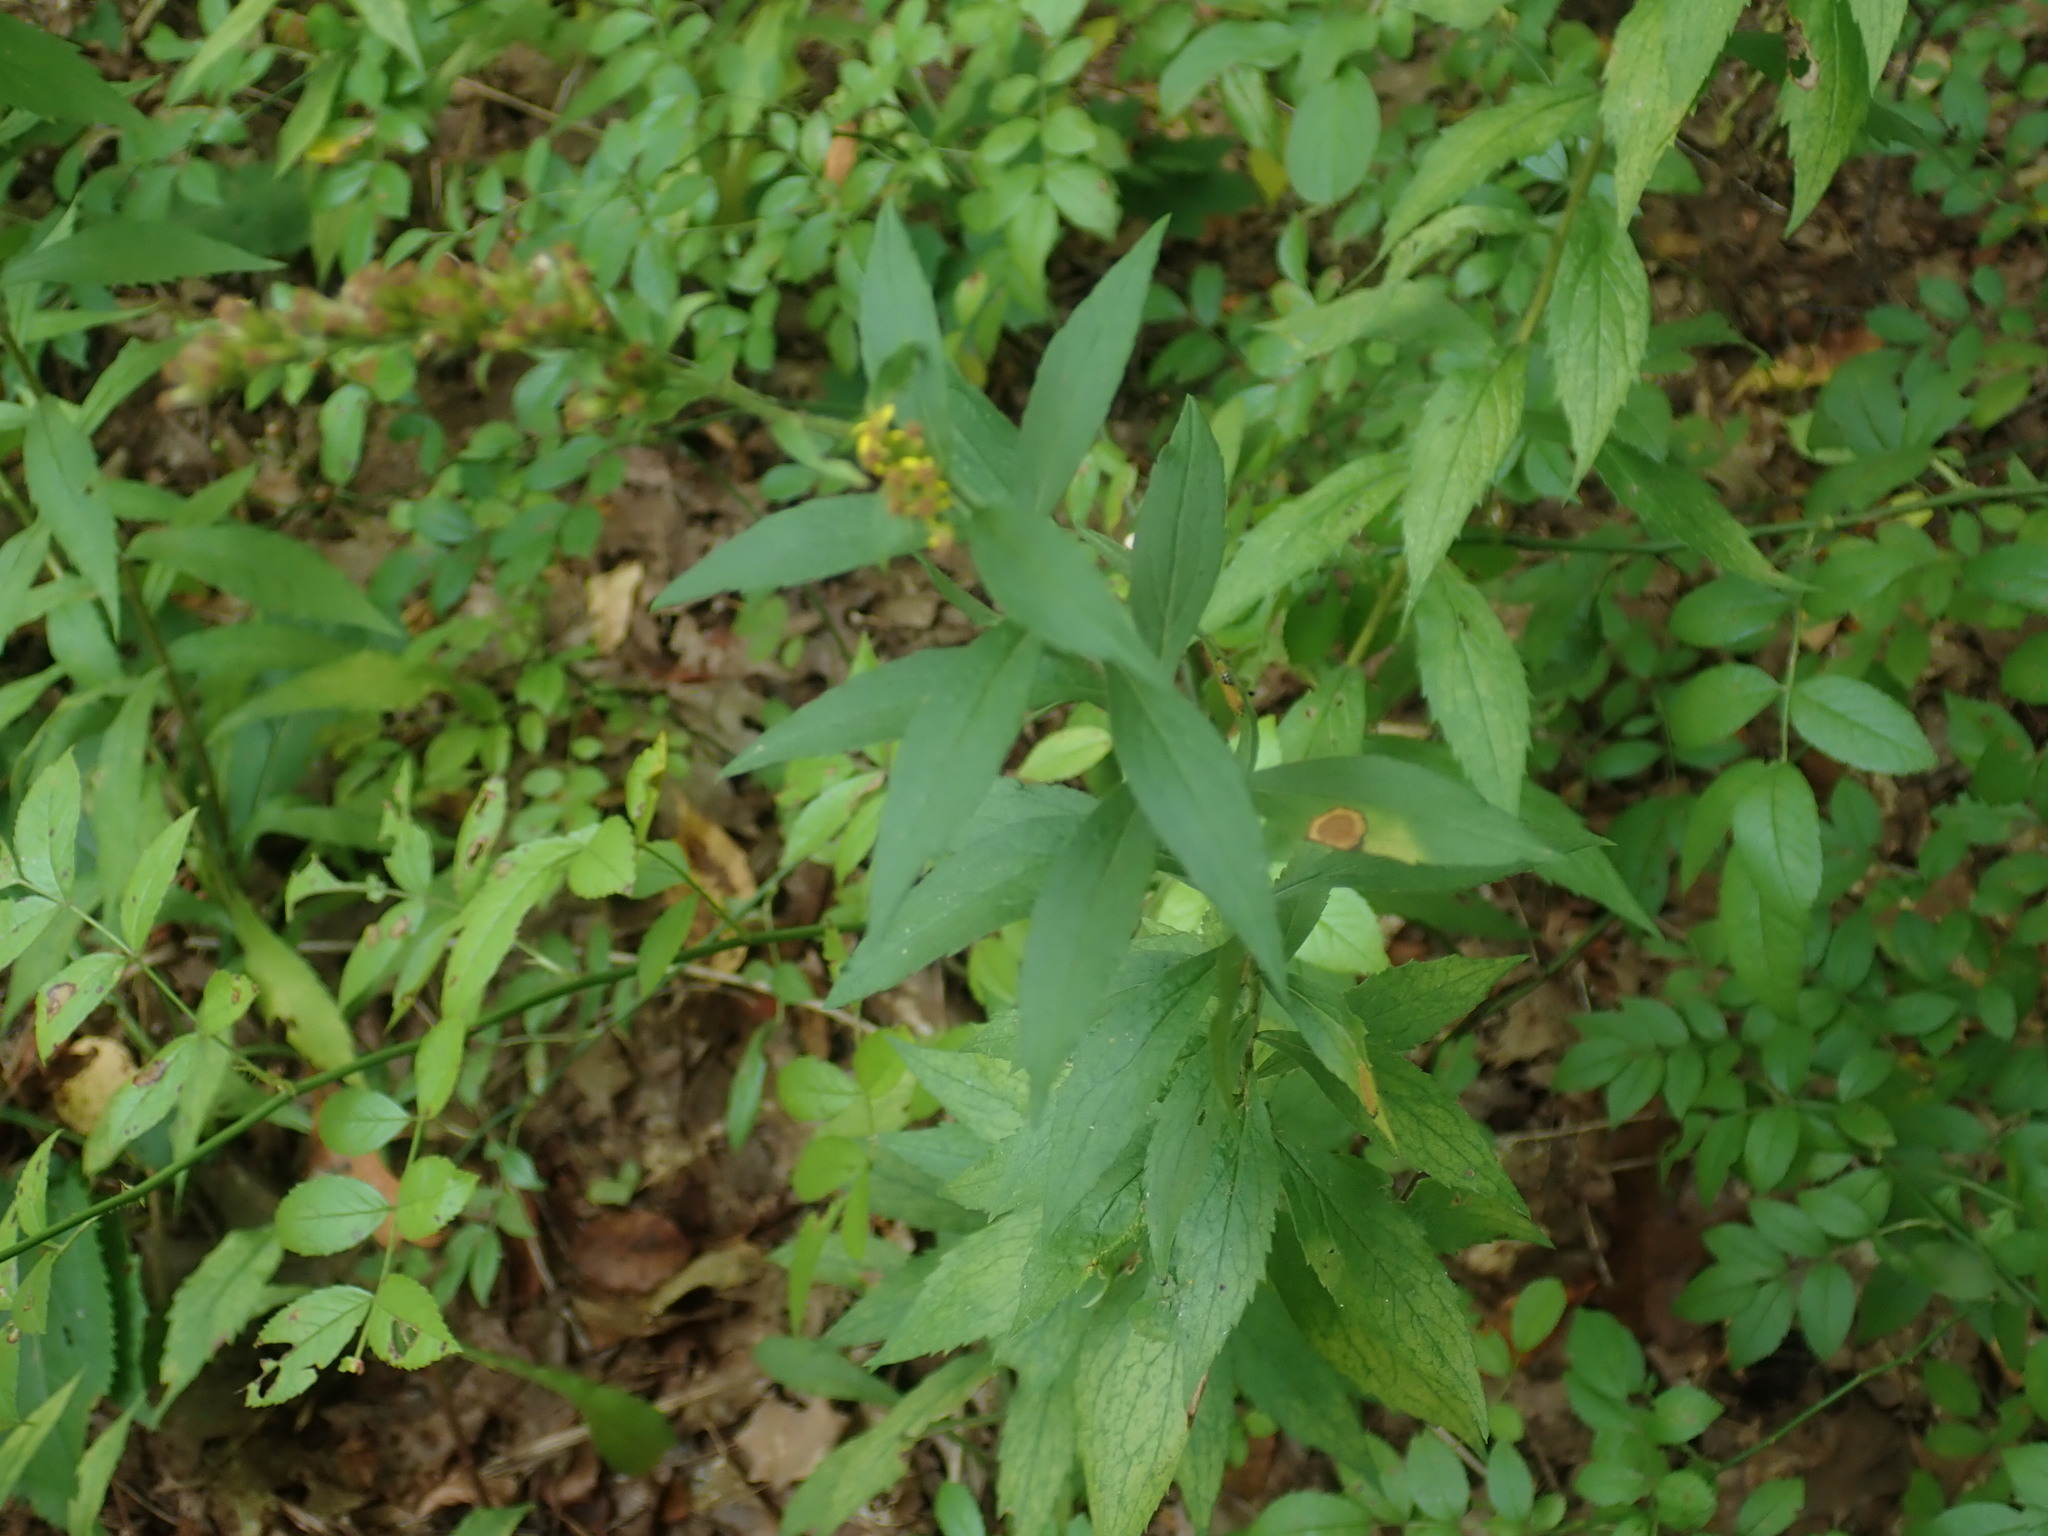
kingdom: Animalia
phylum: Arthropoda
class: Insecta
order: Diptera
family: Cecidomyiidae
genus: Asteromyia
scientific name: Asteromyia carbonifera
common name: Carbonifera goldenrod gall midge
